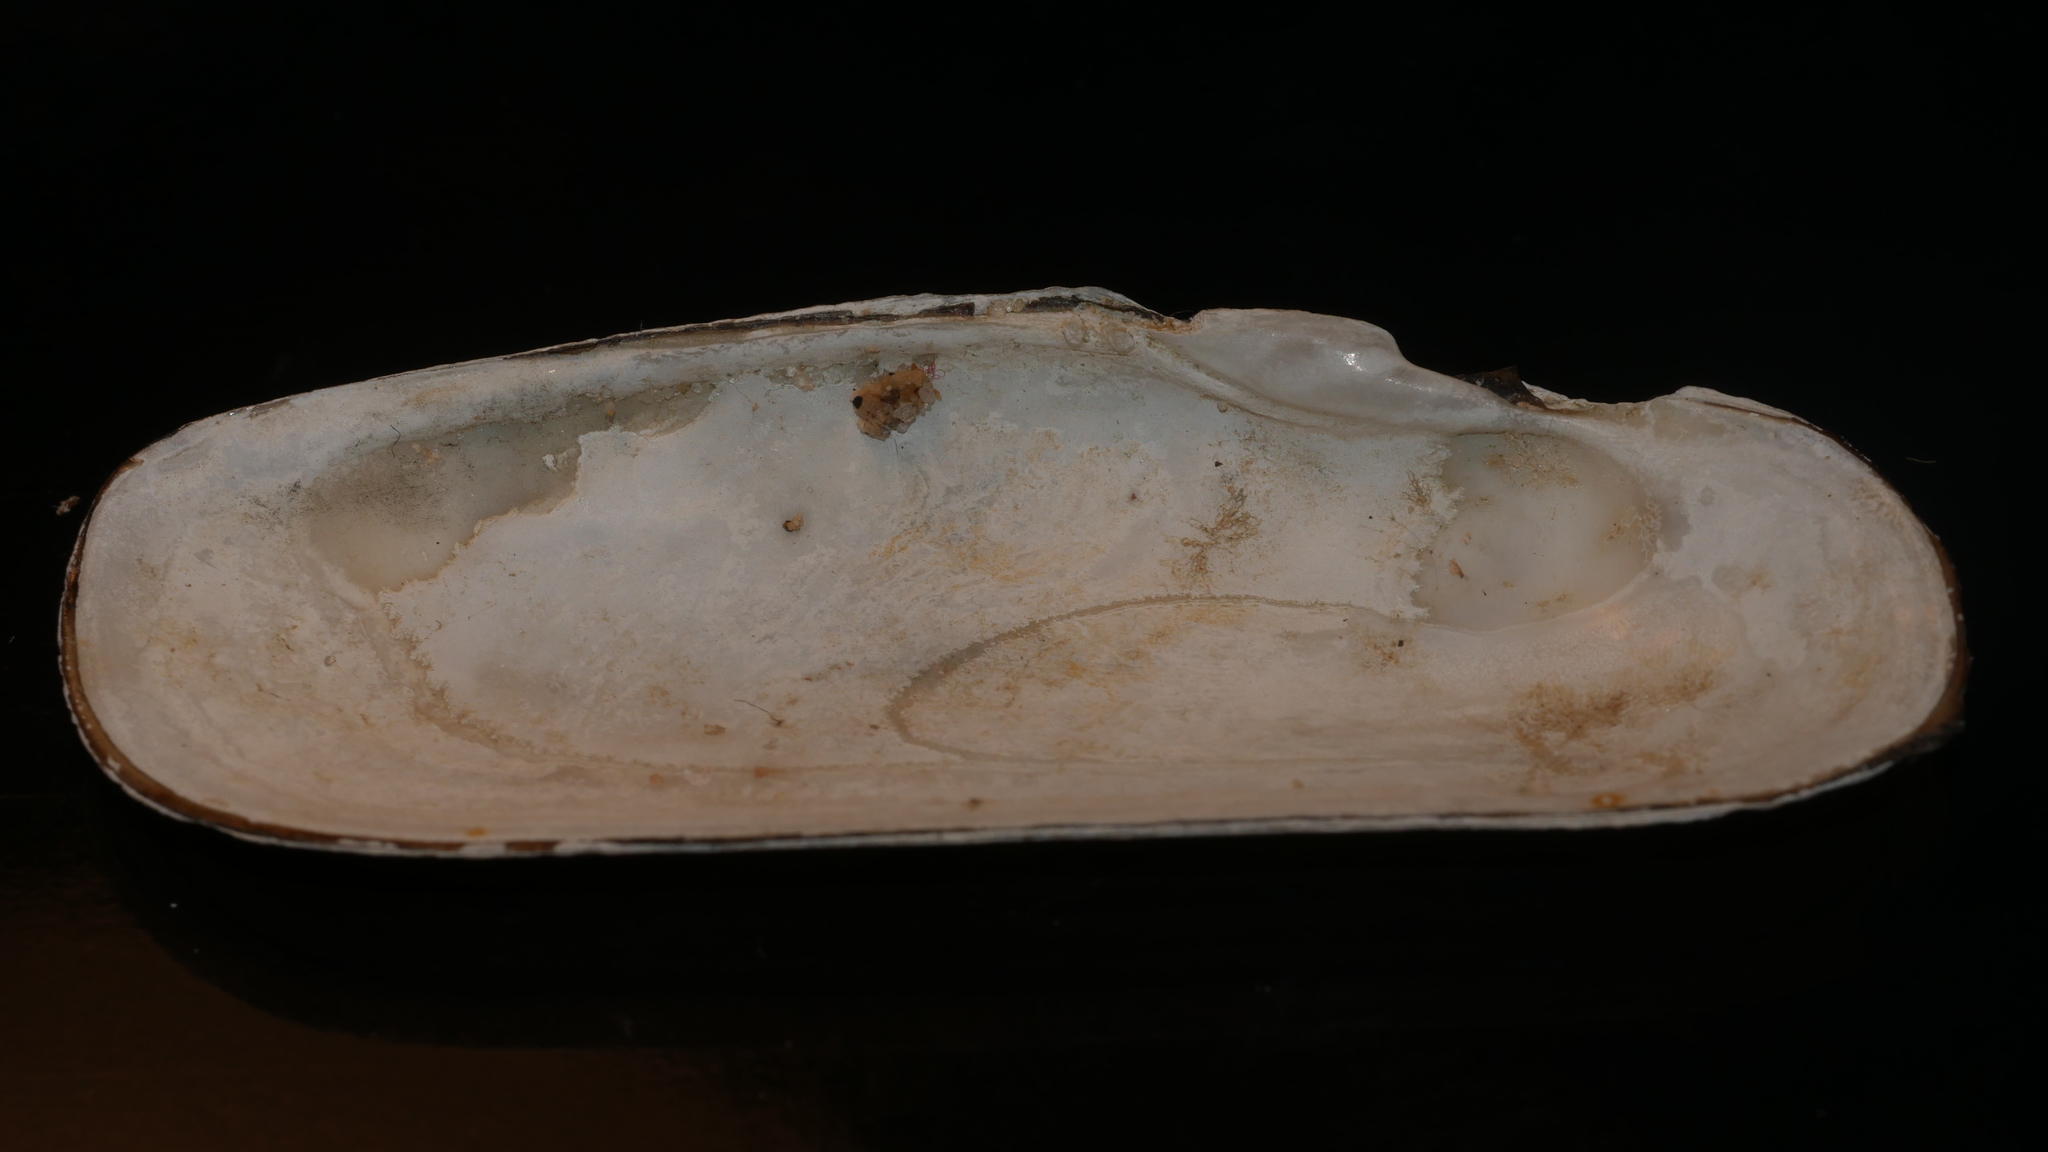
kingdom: Animalia
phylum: Mollusca
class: Bivalvia
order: Cardiida
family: Solecurtidae
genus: Tagelus
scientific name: Tagelus plebeius
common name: Stout tagelus
